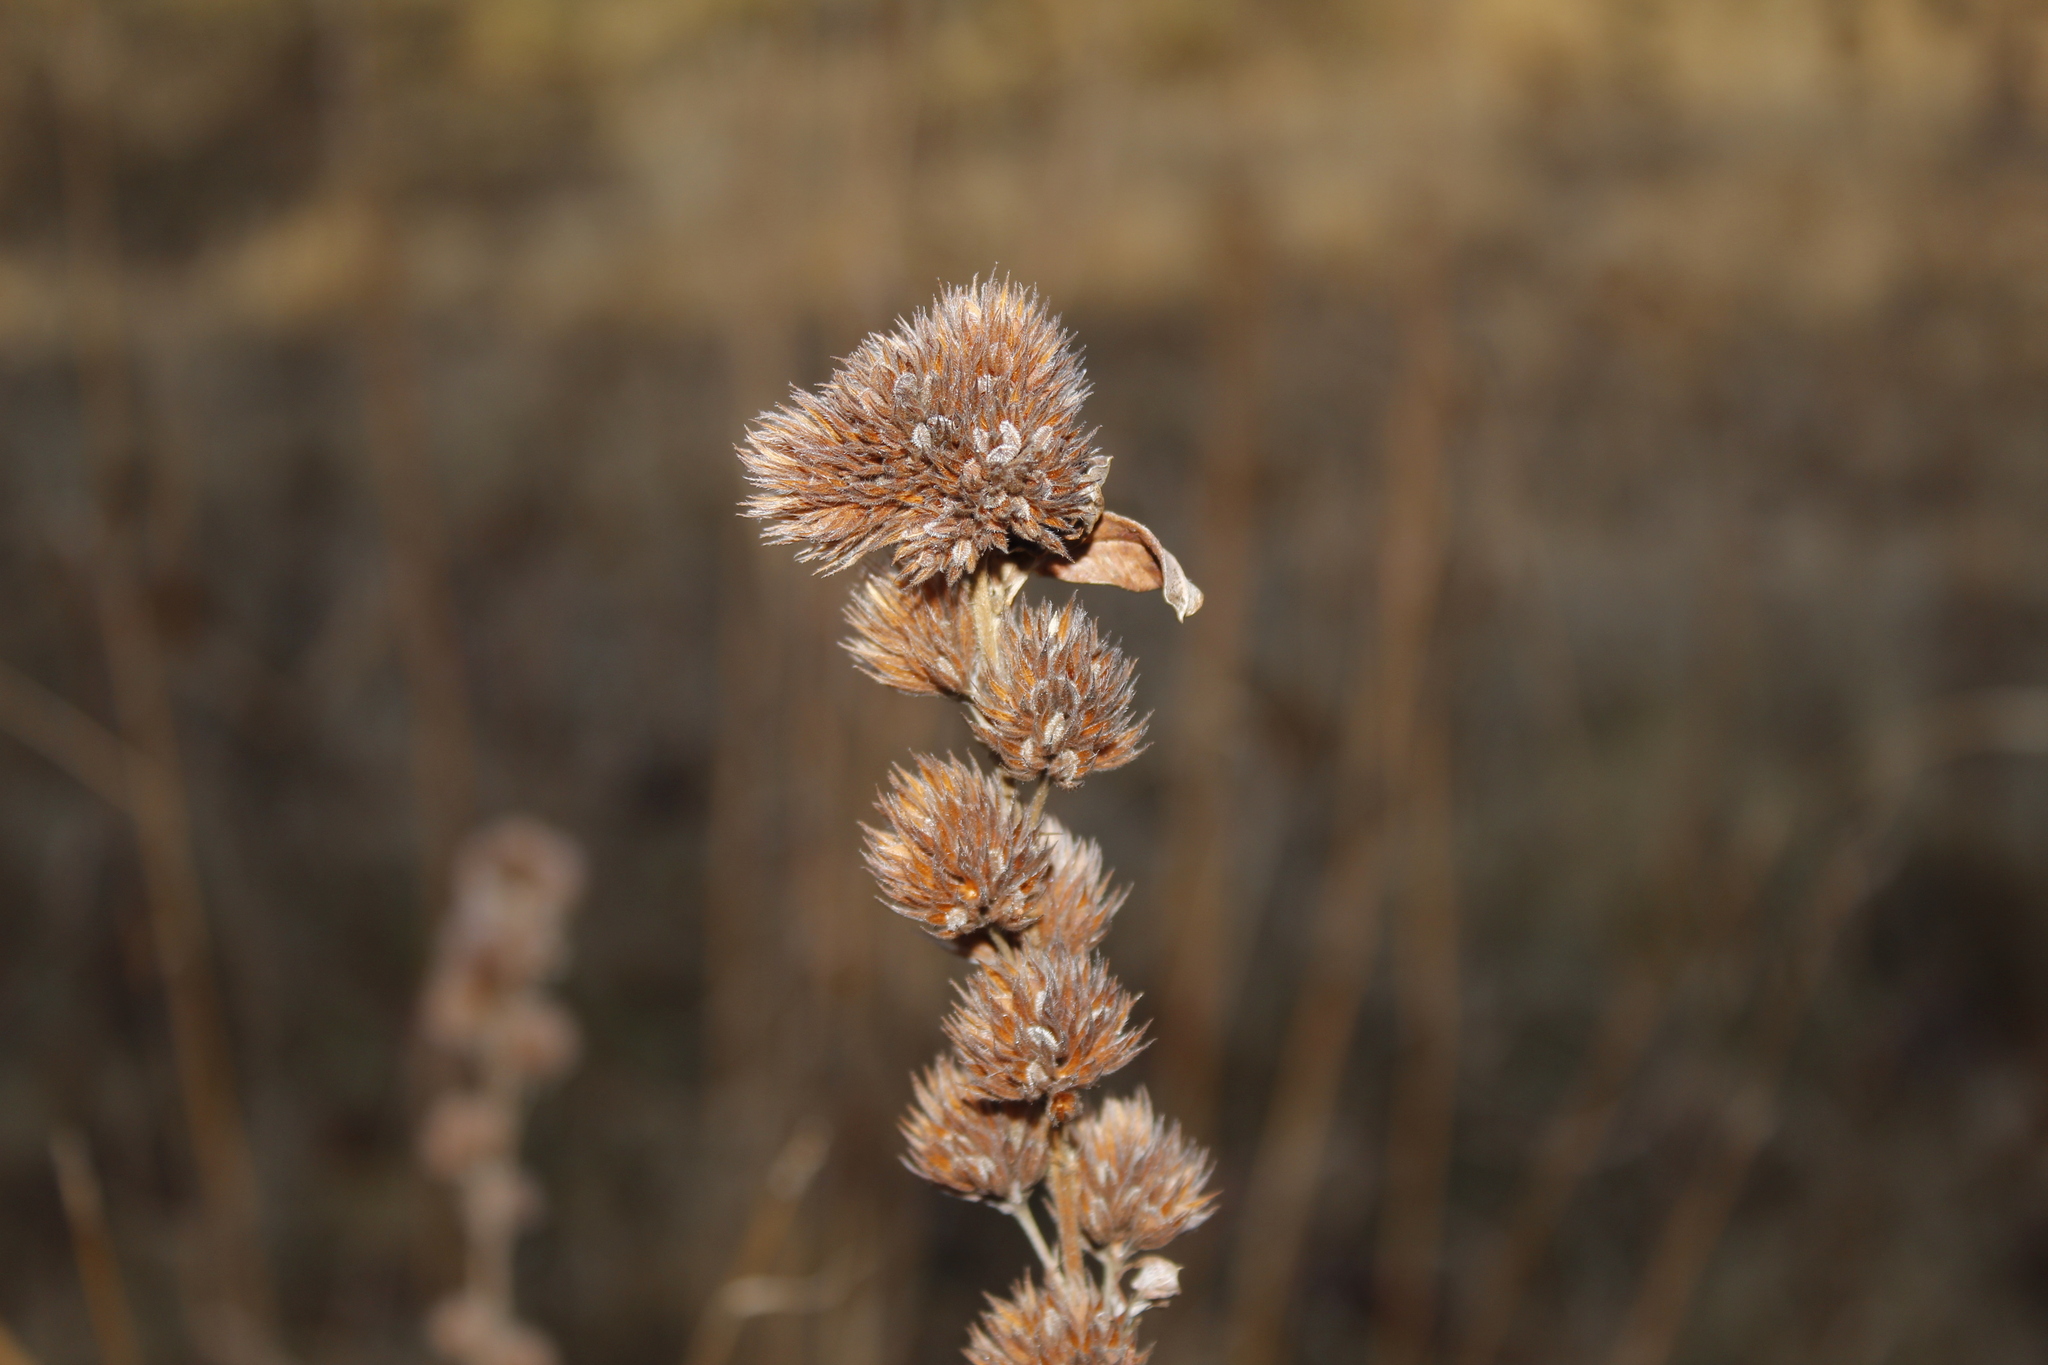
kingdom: Plantae
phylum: Tracheophyta
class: Magnoliopsida
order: Fabales
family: Fabaceae
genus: Lespedeza
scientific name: Lespedeza capitata
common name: Dusty clover
